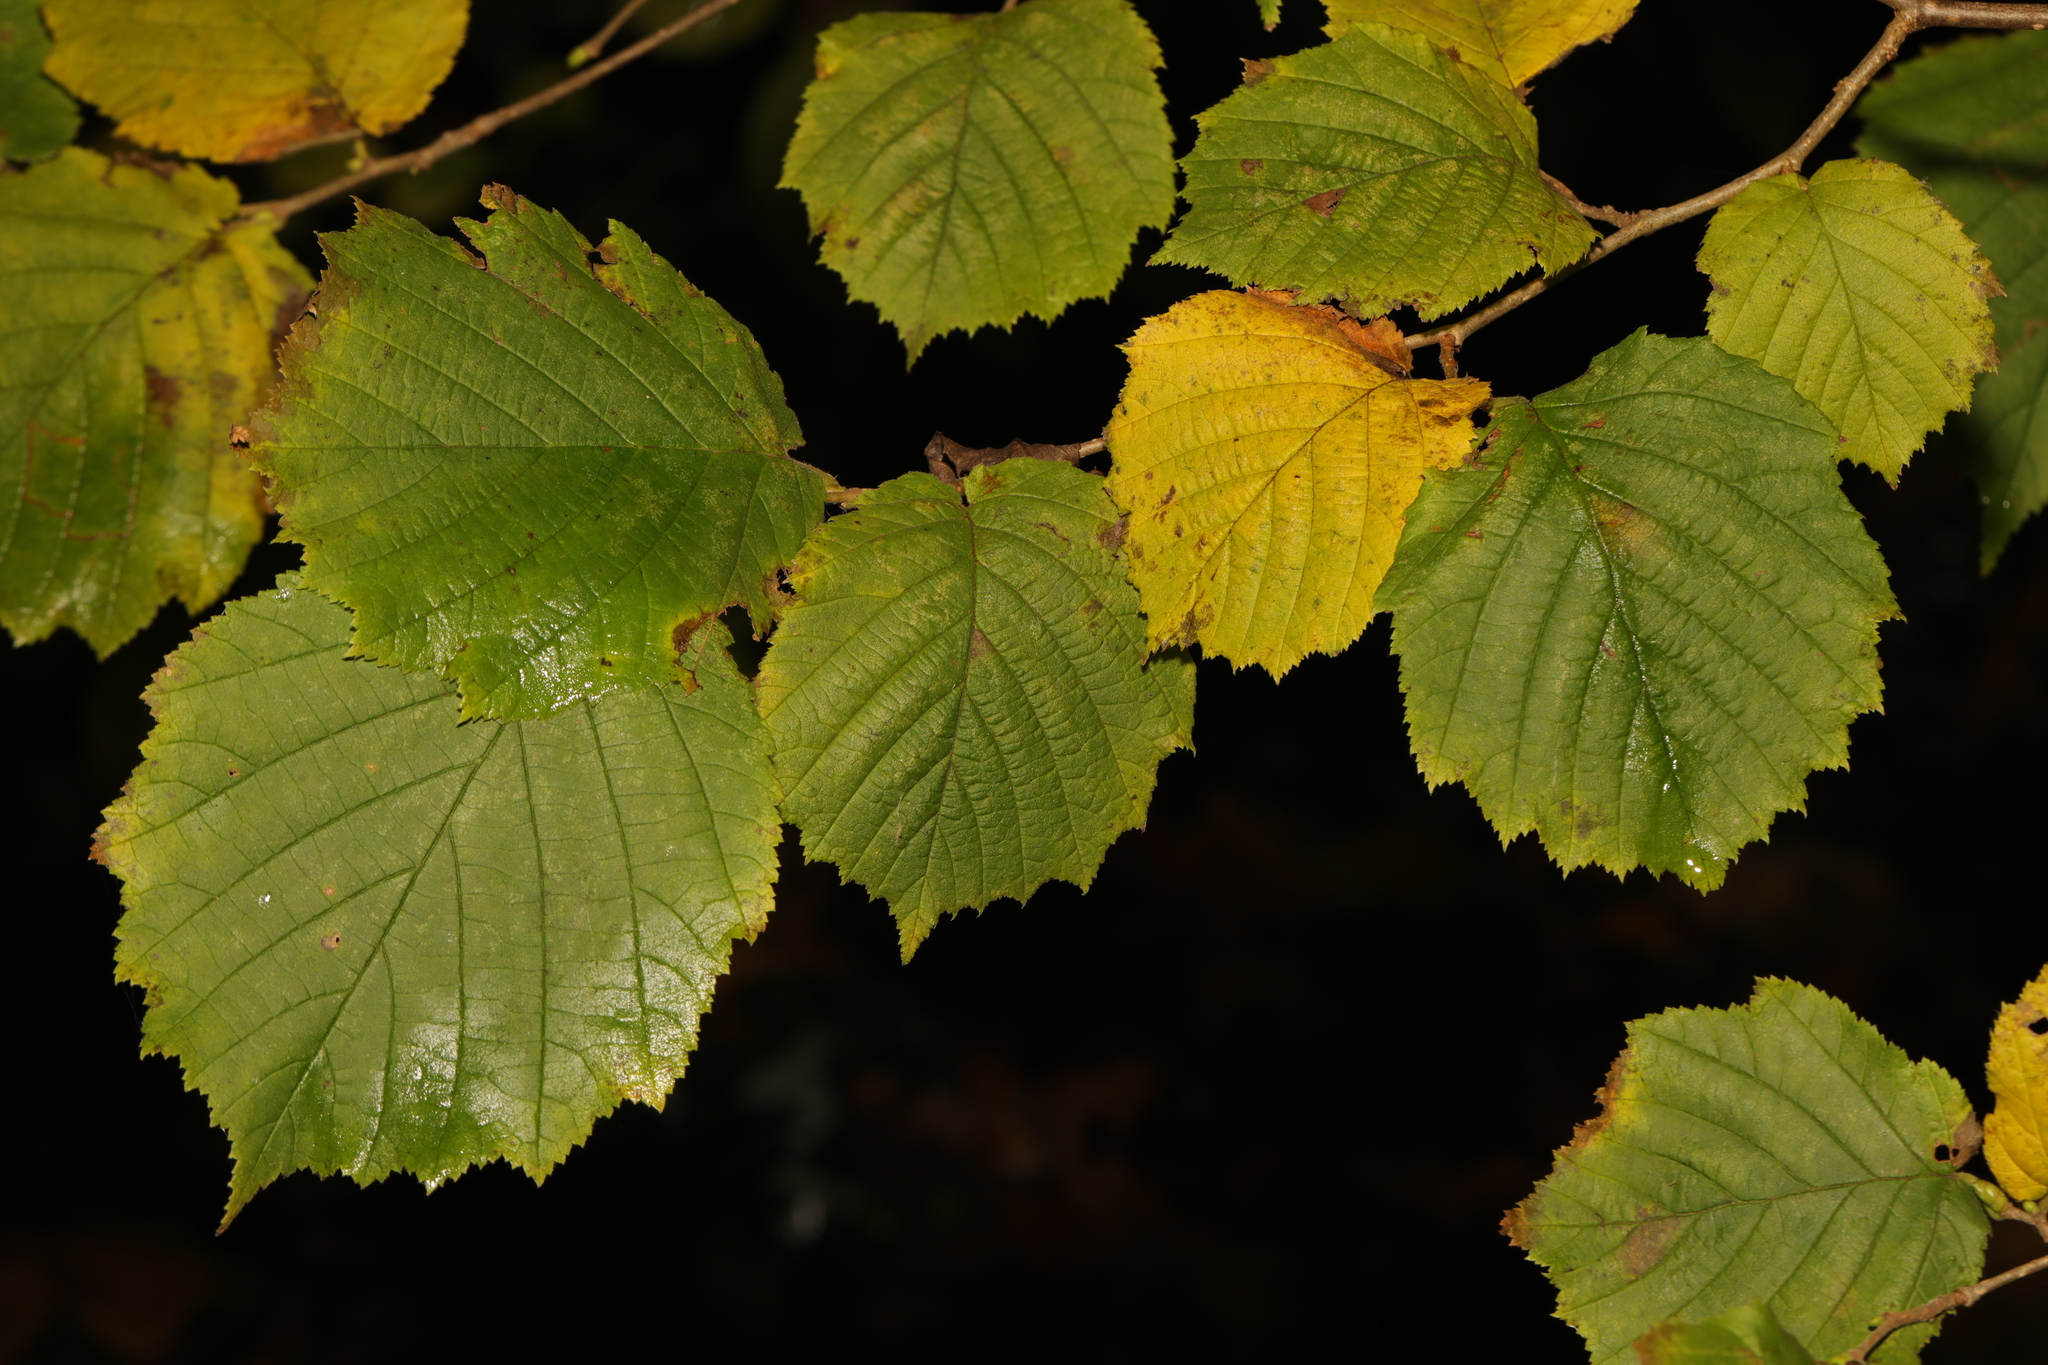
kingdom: Plantae
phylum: Tracheophyta
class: Magnoliopsida
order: Fagales
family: Betulaceae
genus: Corylus
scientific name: Corylus avellana
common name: European hazel
